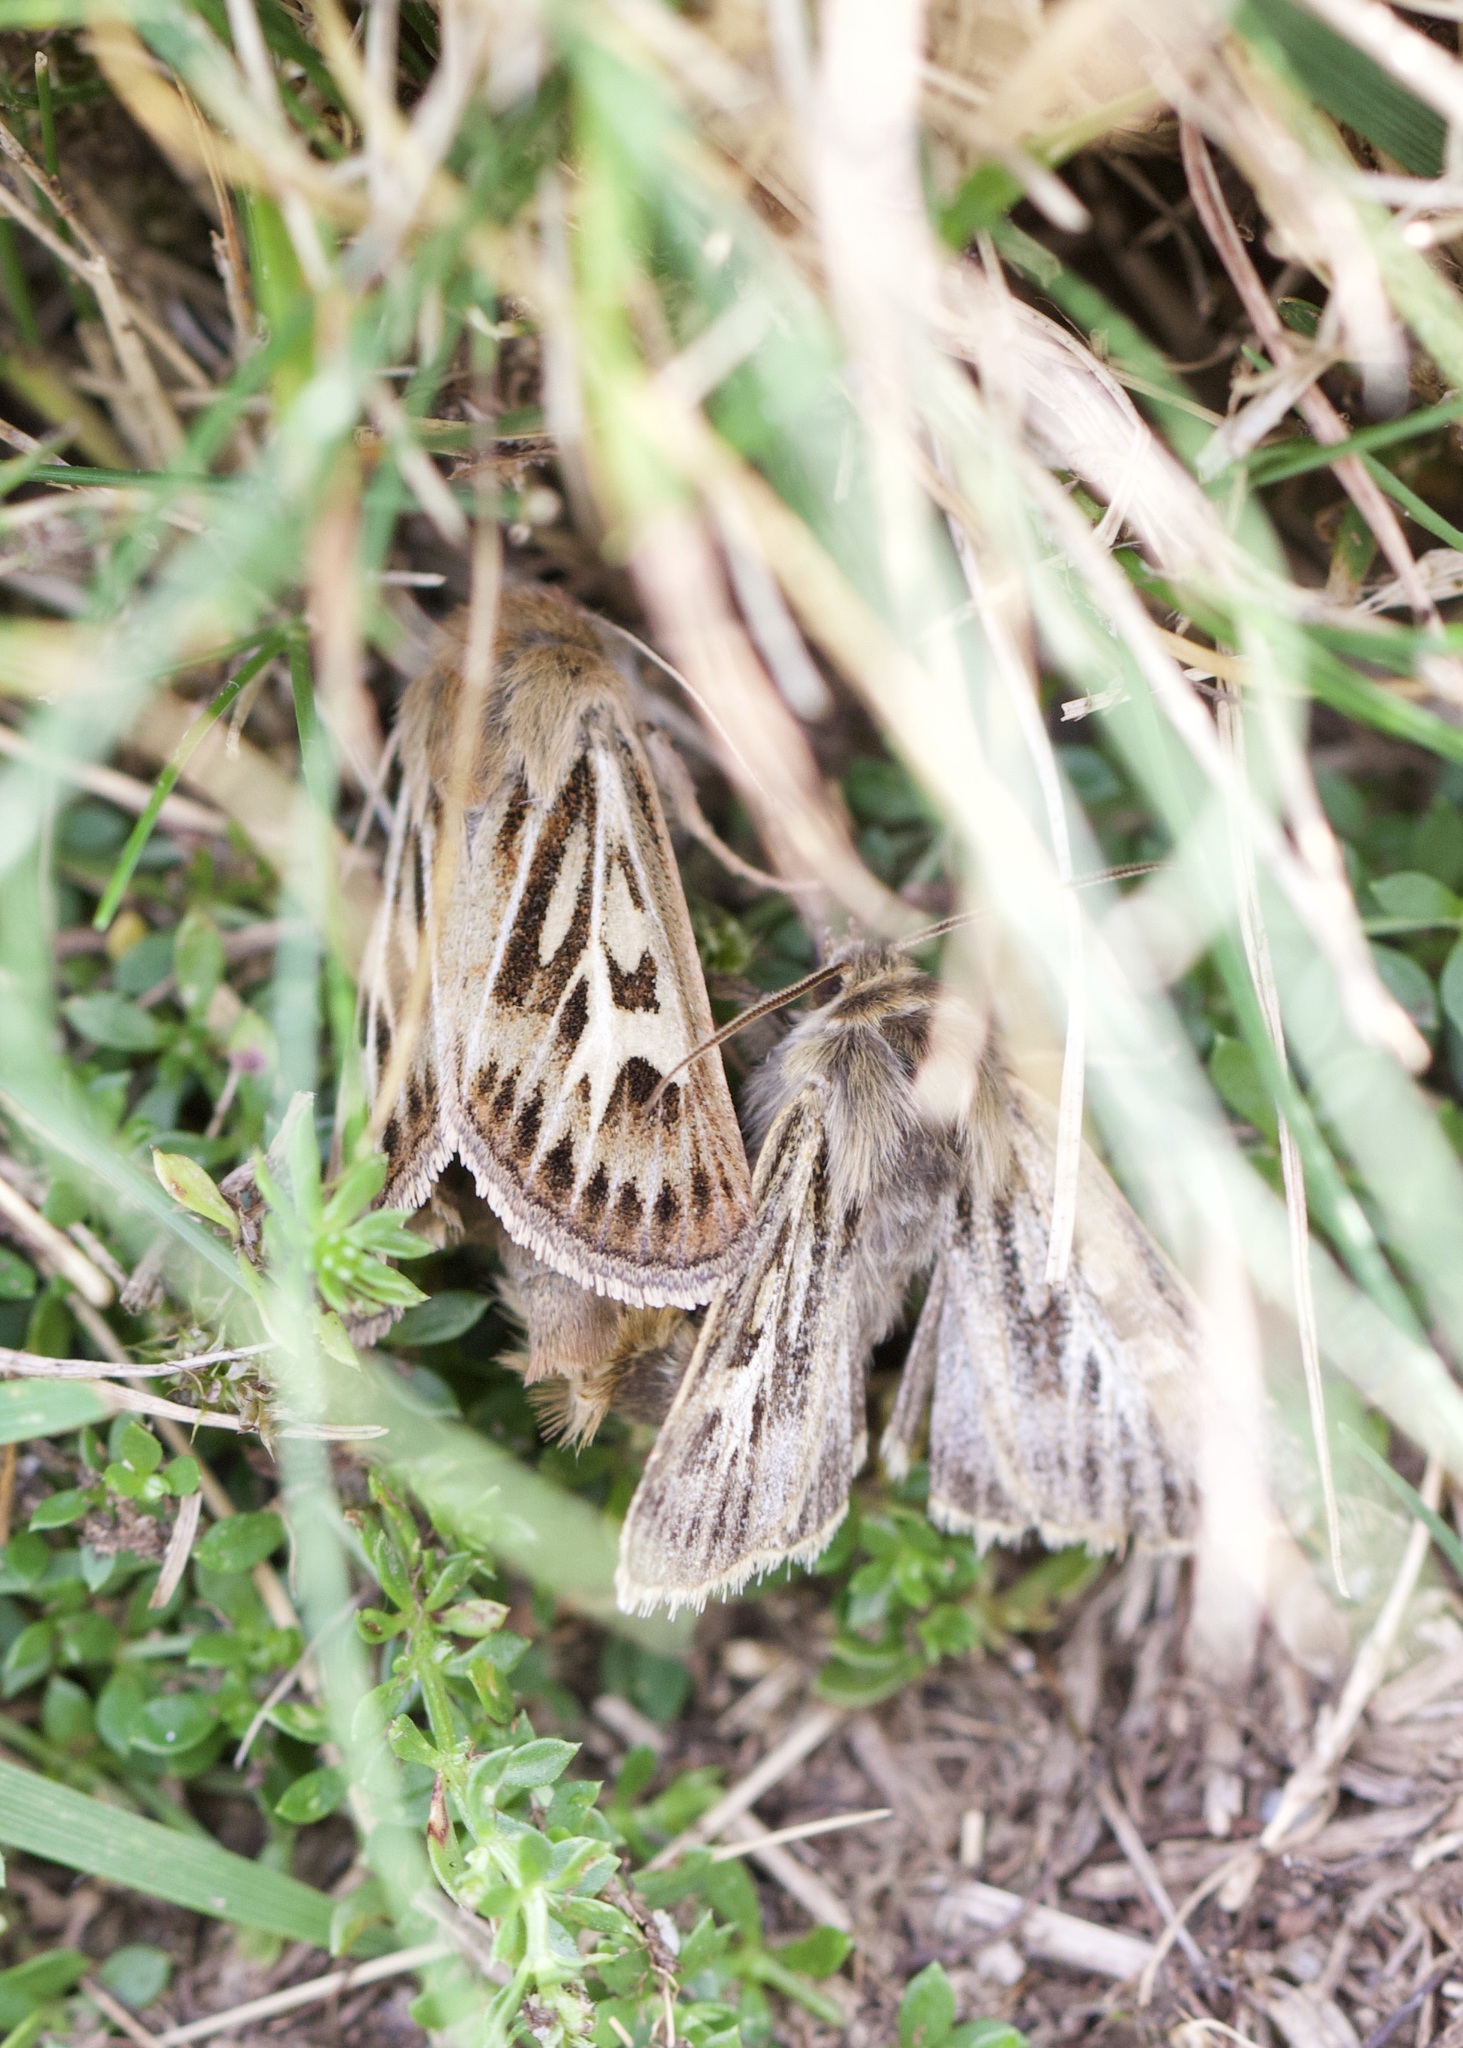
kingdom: Animalia
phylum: Arthropoda
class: Insecta
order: Lepidoptera
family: Noctuidae
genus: Cerapteryx
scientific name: Cerapteryx graminis
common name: Antler moth
